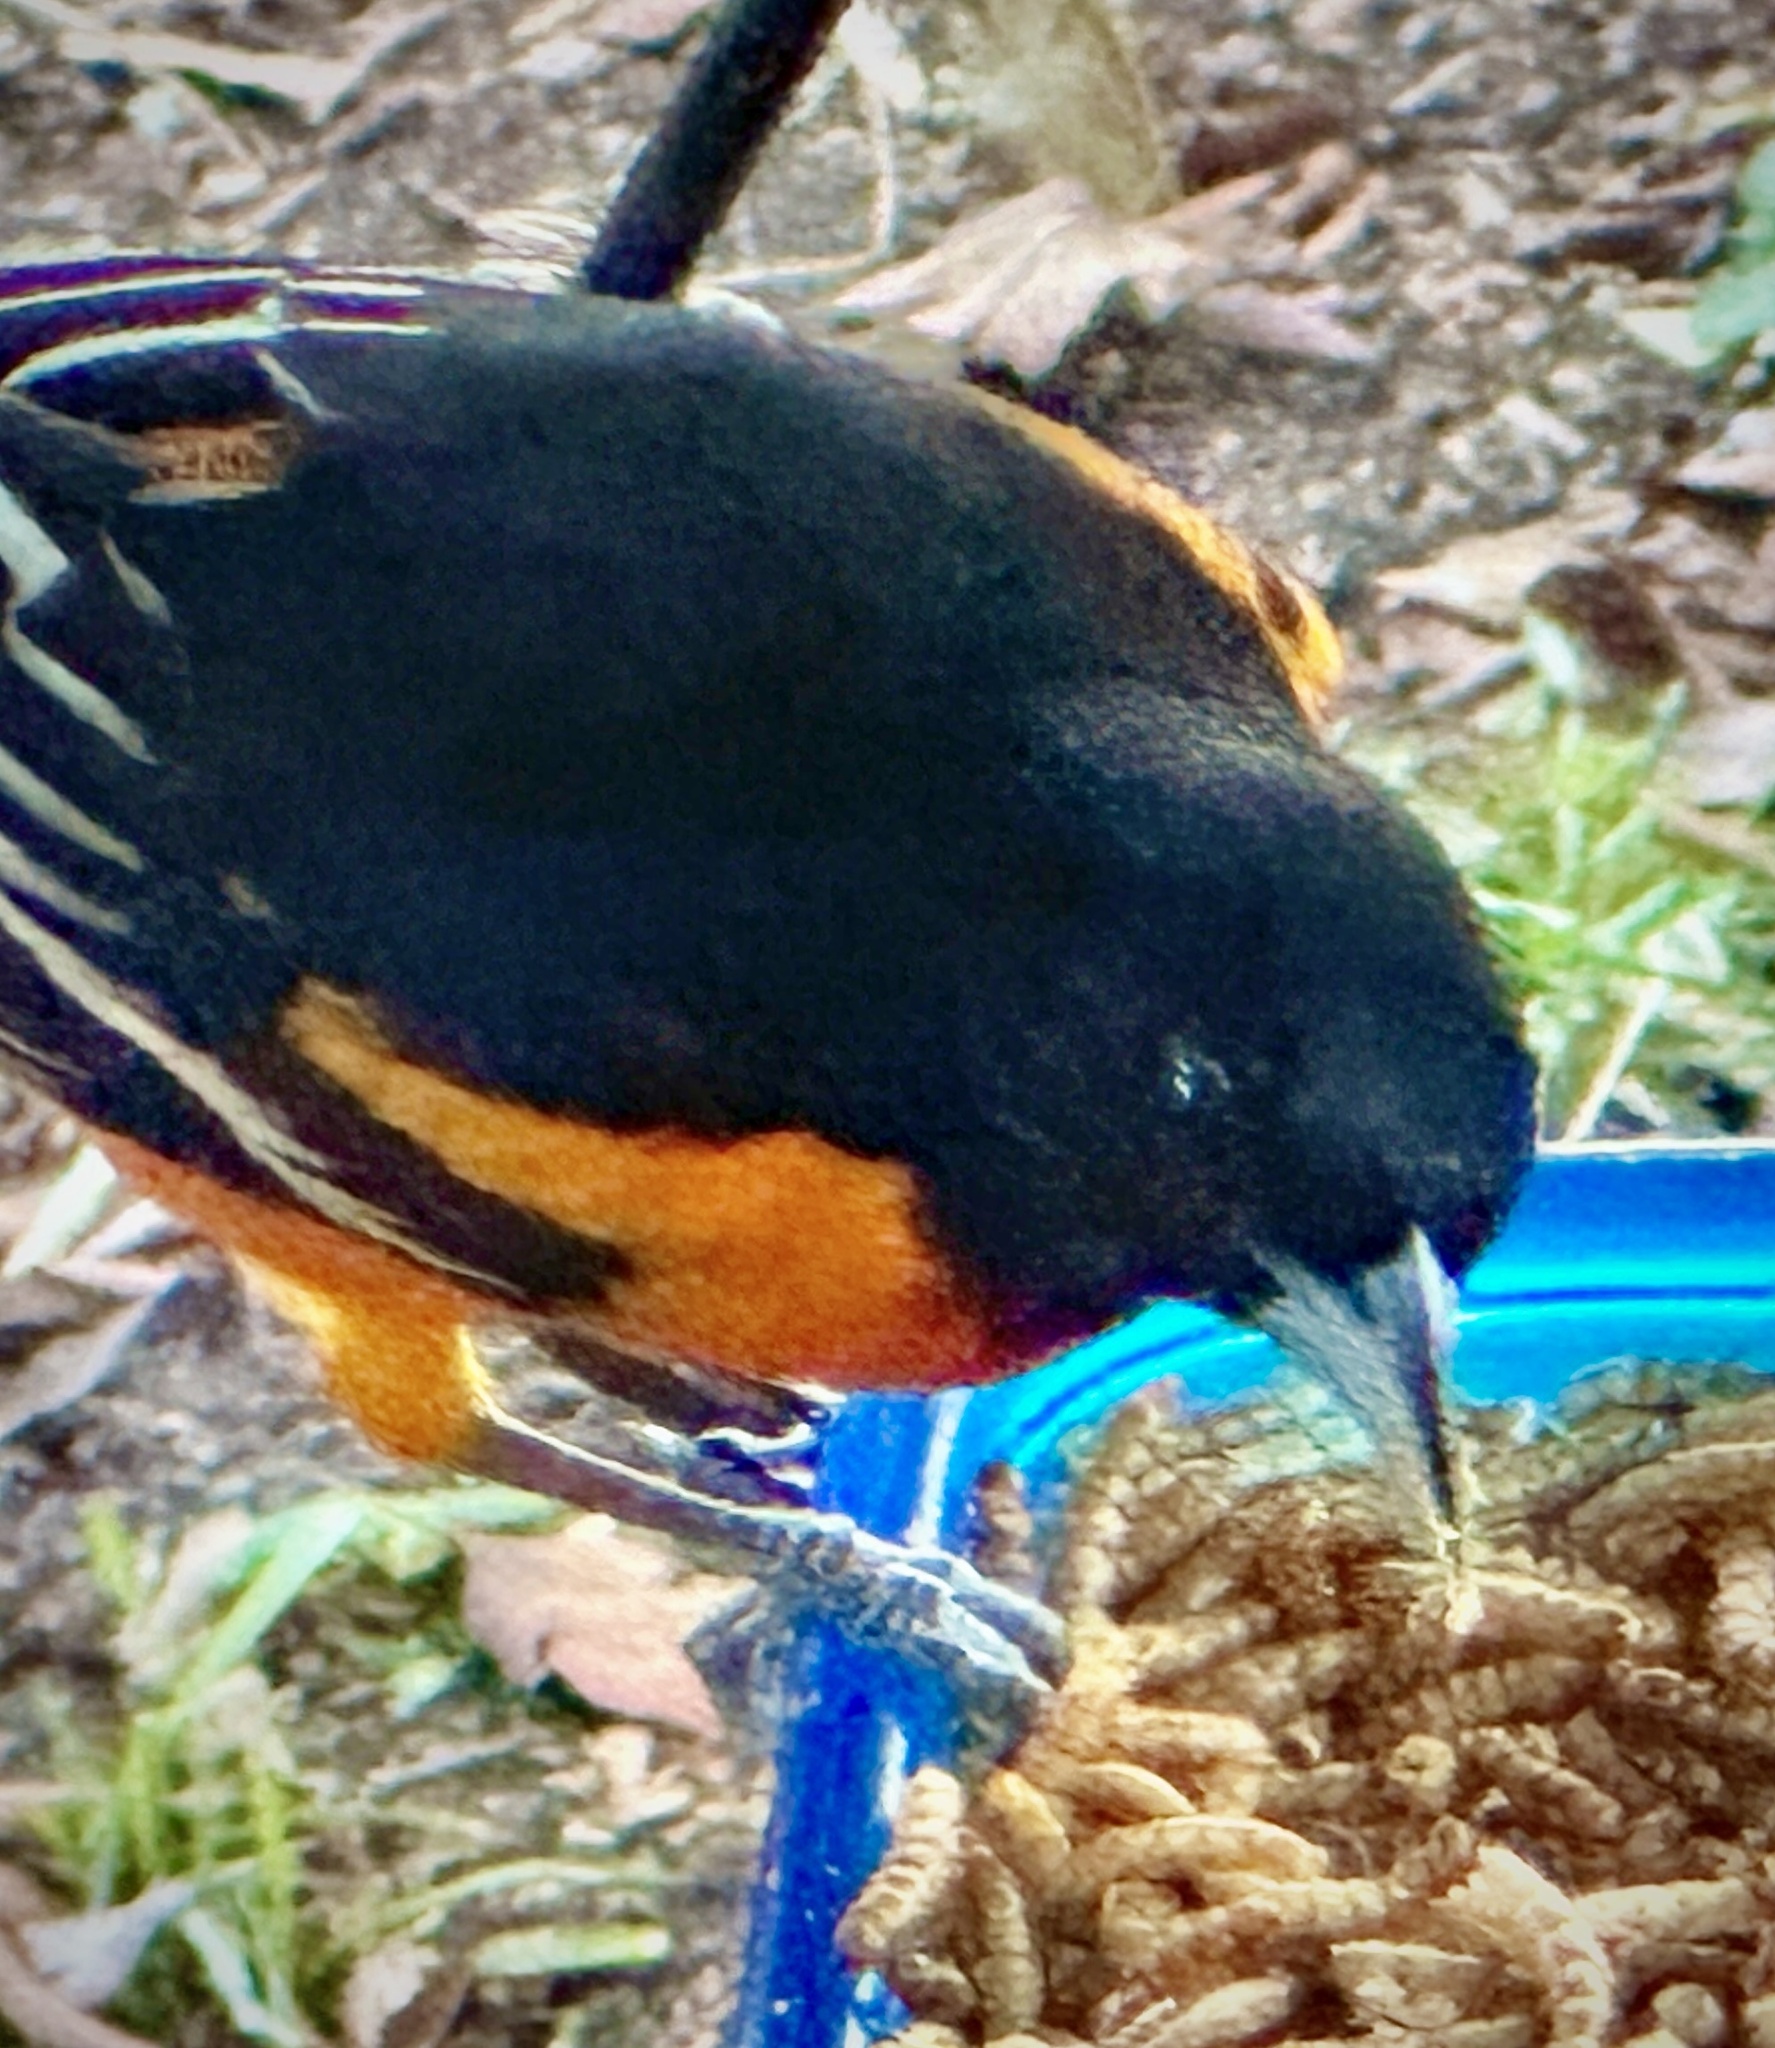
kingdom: Animalia
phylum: Chordata
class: Aves
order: Passeriformes
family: Icteridae
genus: Icterus
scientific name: Icterus galbula
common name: Baltimore oriole
